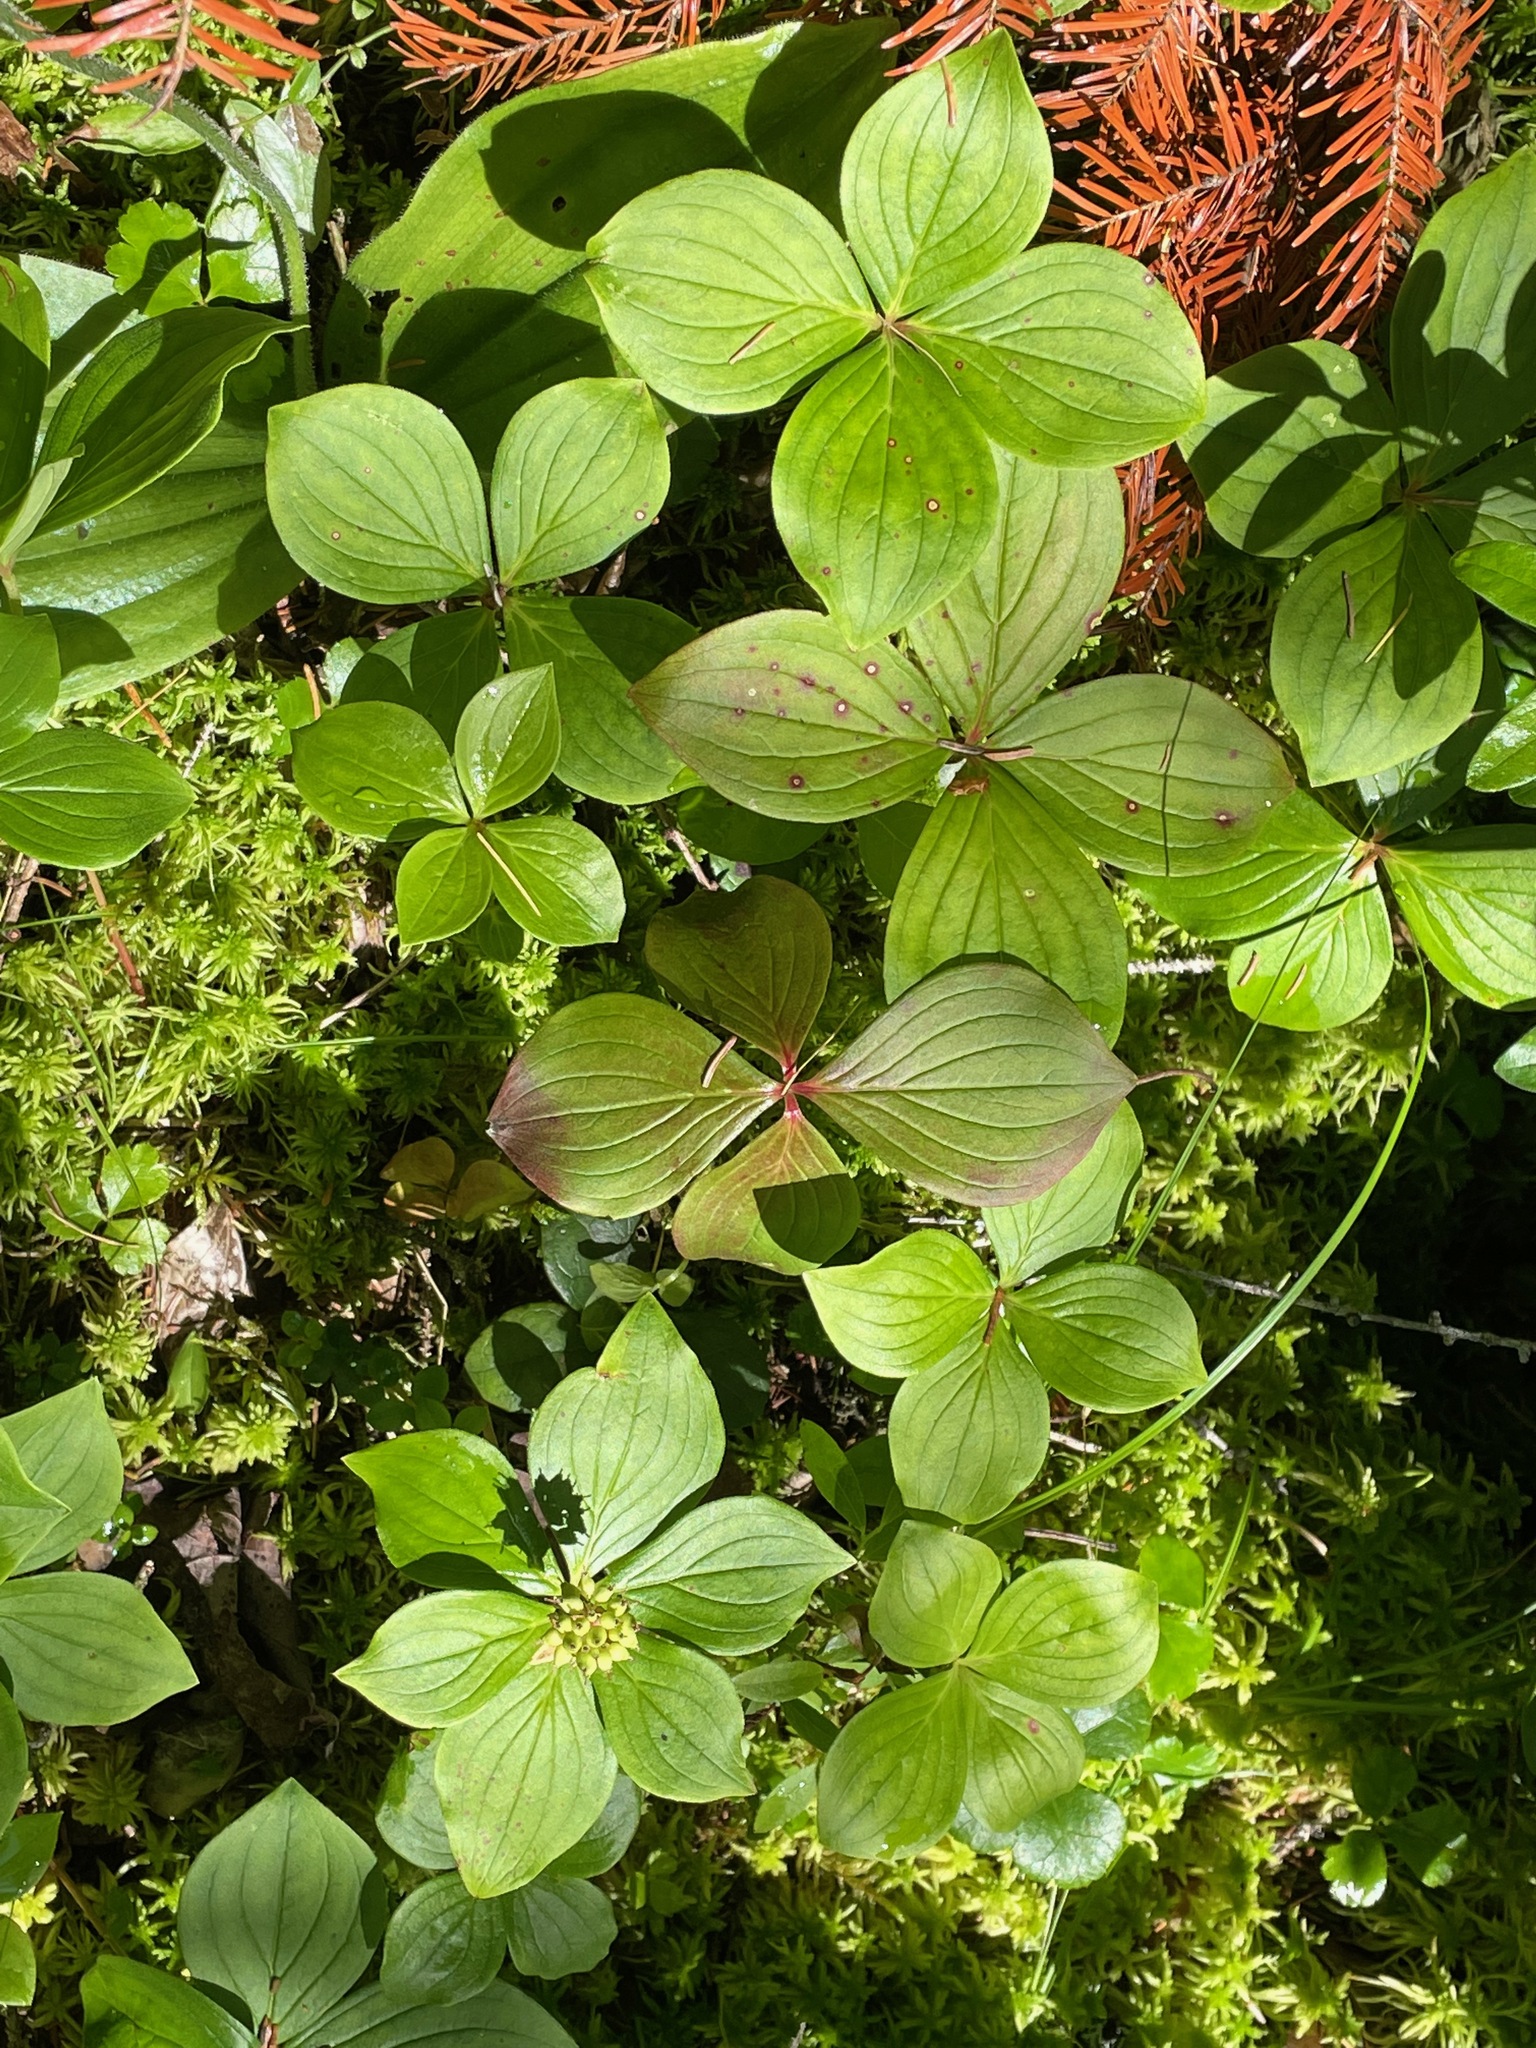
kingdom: Plantae
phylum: Tracheophyta
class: Magnoliopsida
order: Cornales
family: Cornaceae
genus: Cornus
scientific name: Cornus canadensis
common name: Creeping dogwood
